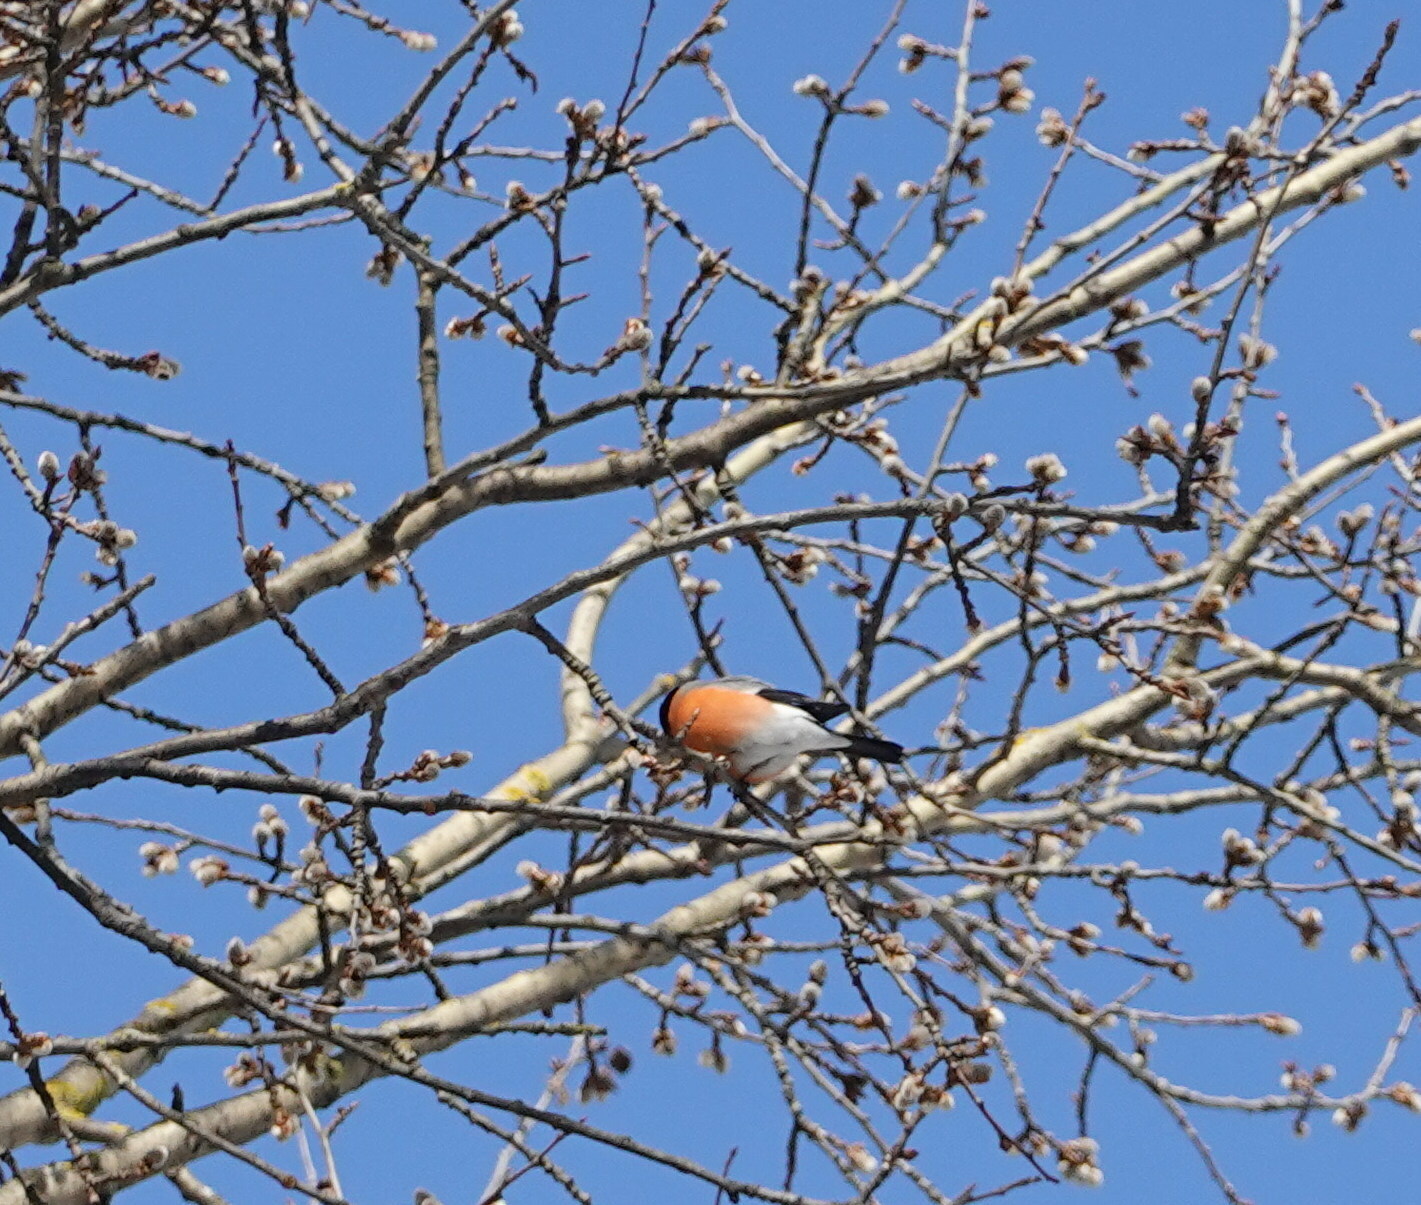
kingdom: Animalia
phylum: Chordata
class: Aves
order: Passeriformes
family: Fringillidae
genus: Pyrrhula
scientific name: Pyrrhula pyrrhula
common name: Eurasian bullfinch
